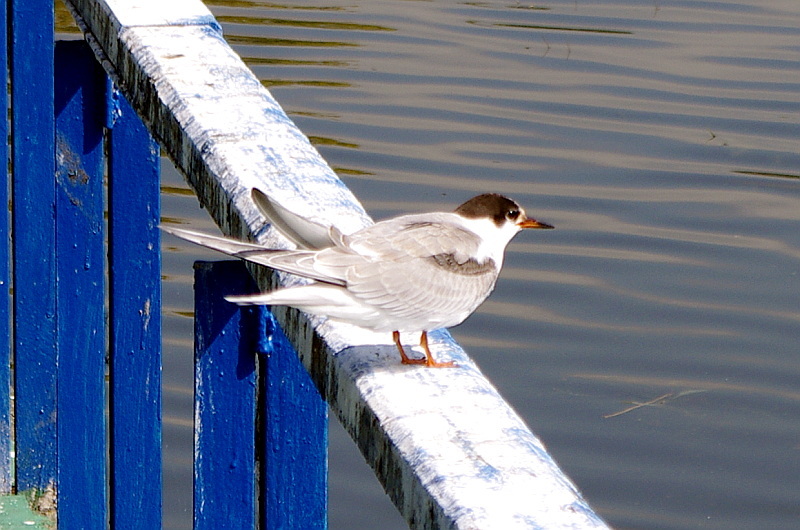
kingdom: Animalia
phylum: Chordata
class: Aves
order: Charadriiformes
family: Laridae
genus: Sterna
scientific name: Sterna hirundo
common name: Common tern
